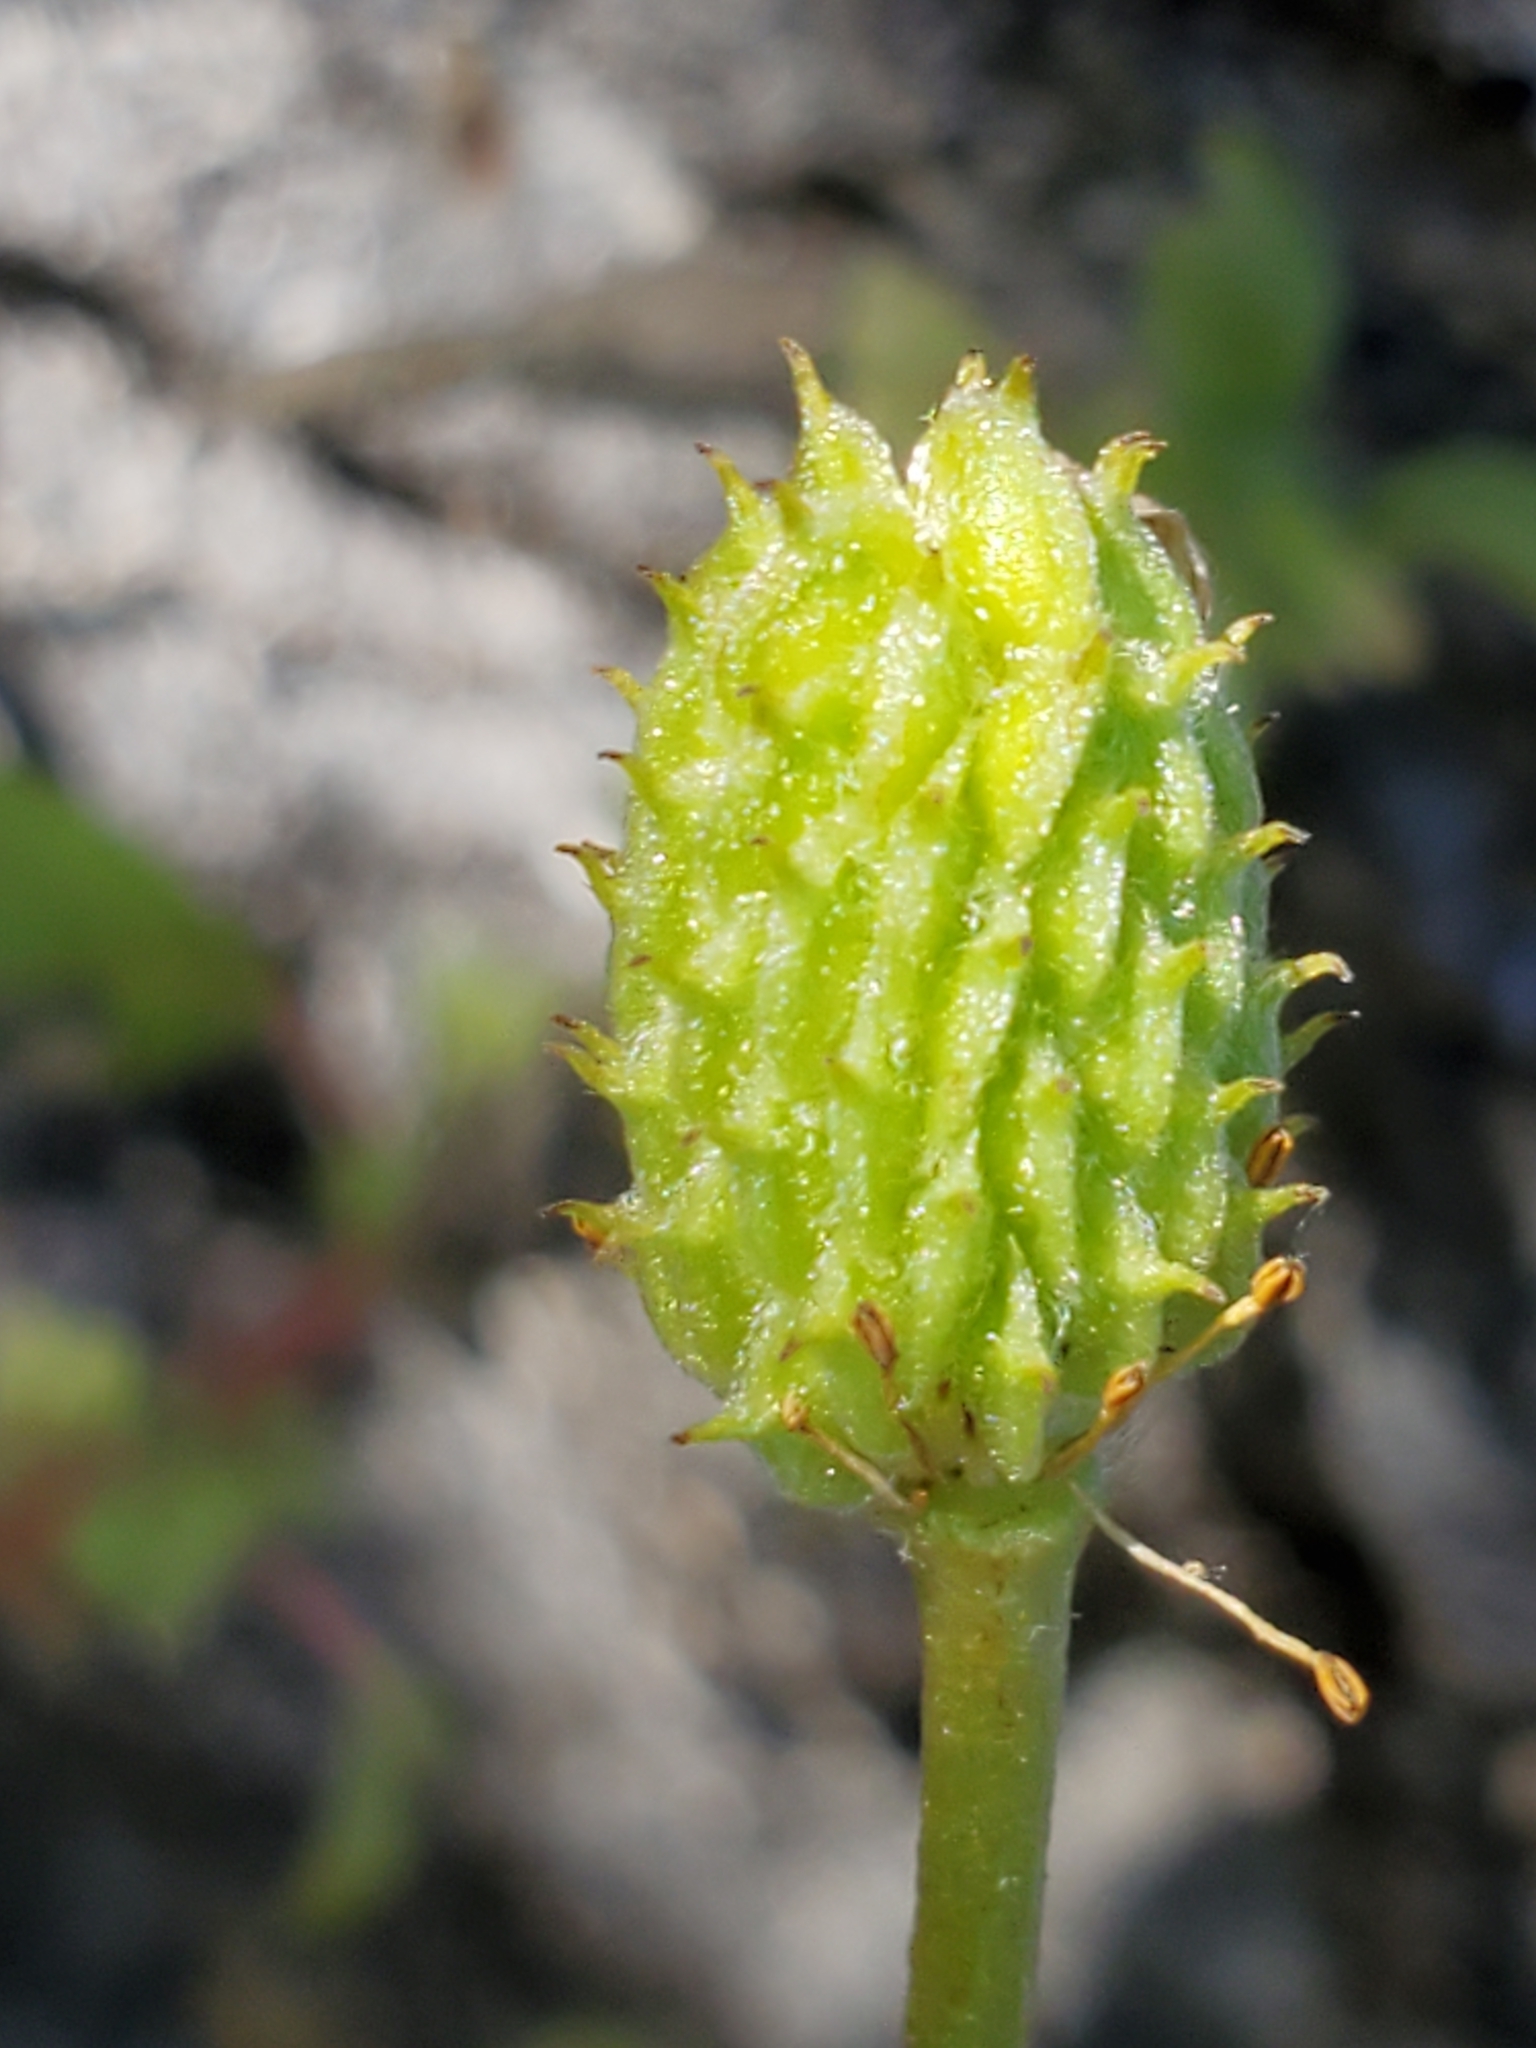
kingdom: Plantae
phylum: Tracheophyta
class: Magnoliopsida
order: Ranunculales
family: Ranunculaceae
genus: Anemone
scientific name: Anemone edwardsiana
